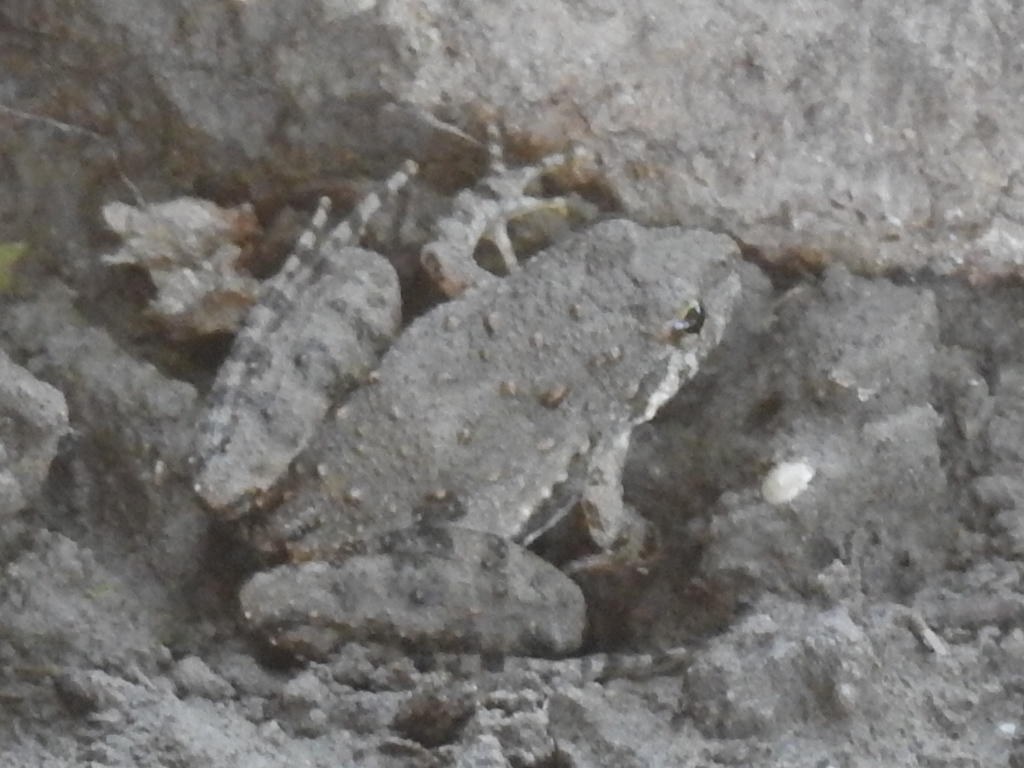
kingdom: Animalia
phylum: Chordata
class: Amphibia
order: Anura
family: Hylidae
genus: Acris
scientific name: Acris blanchardi
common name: Blanchard's cricket frog
